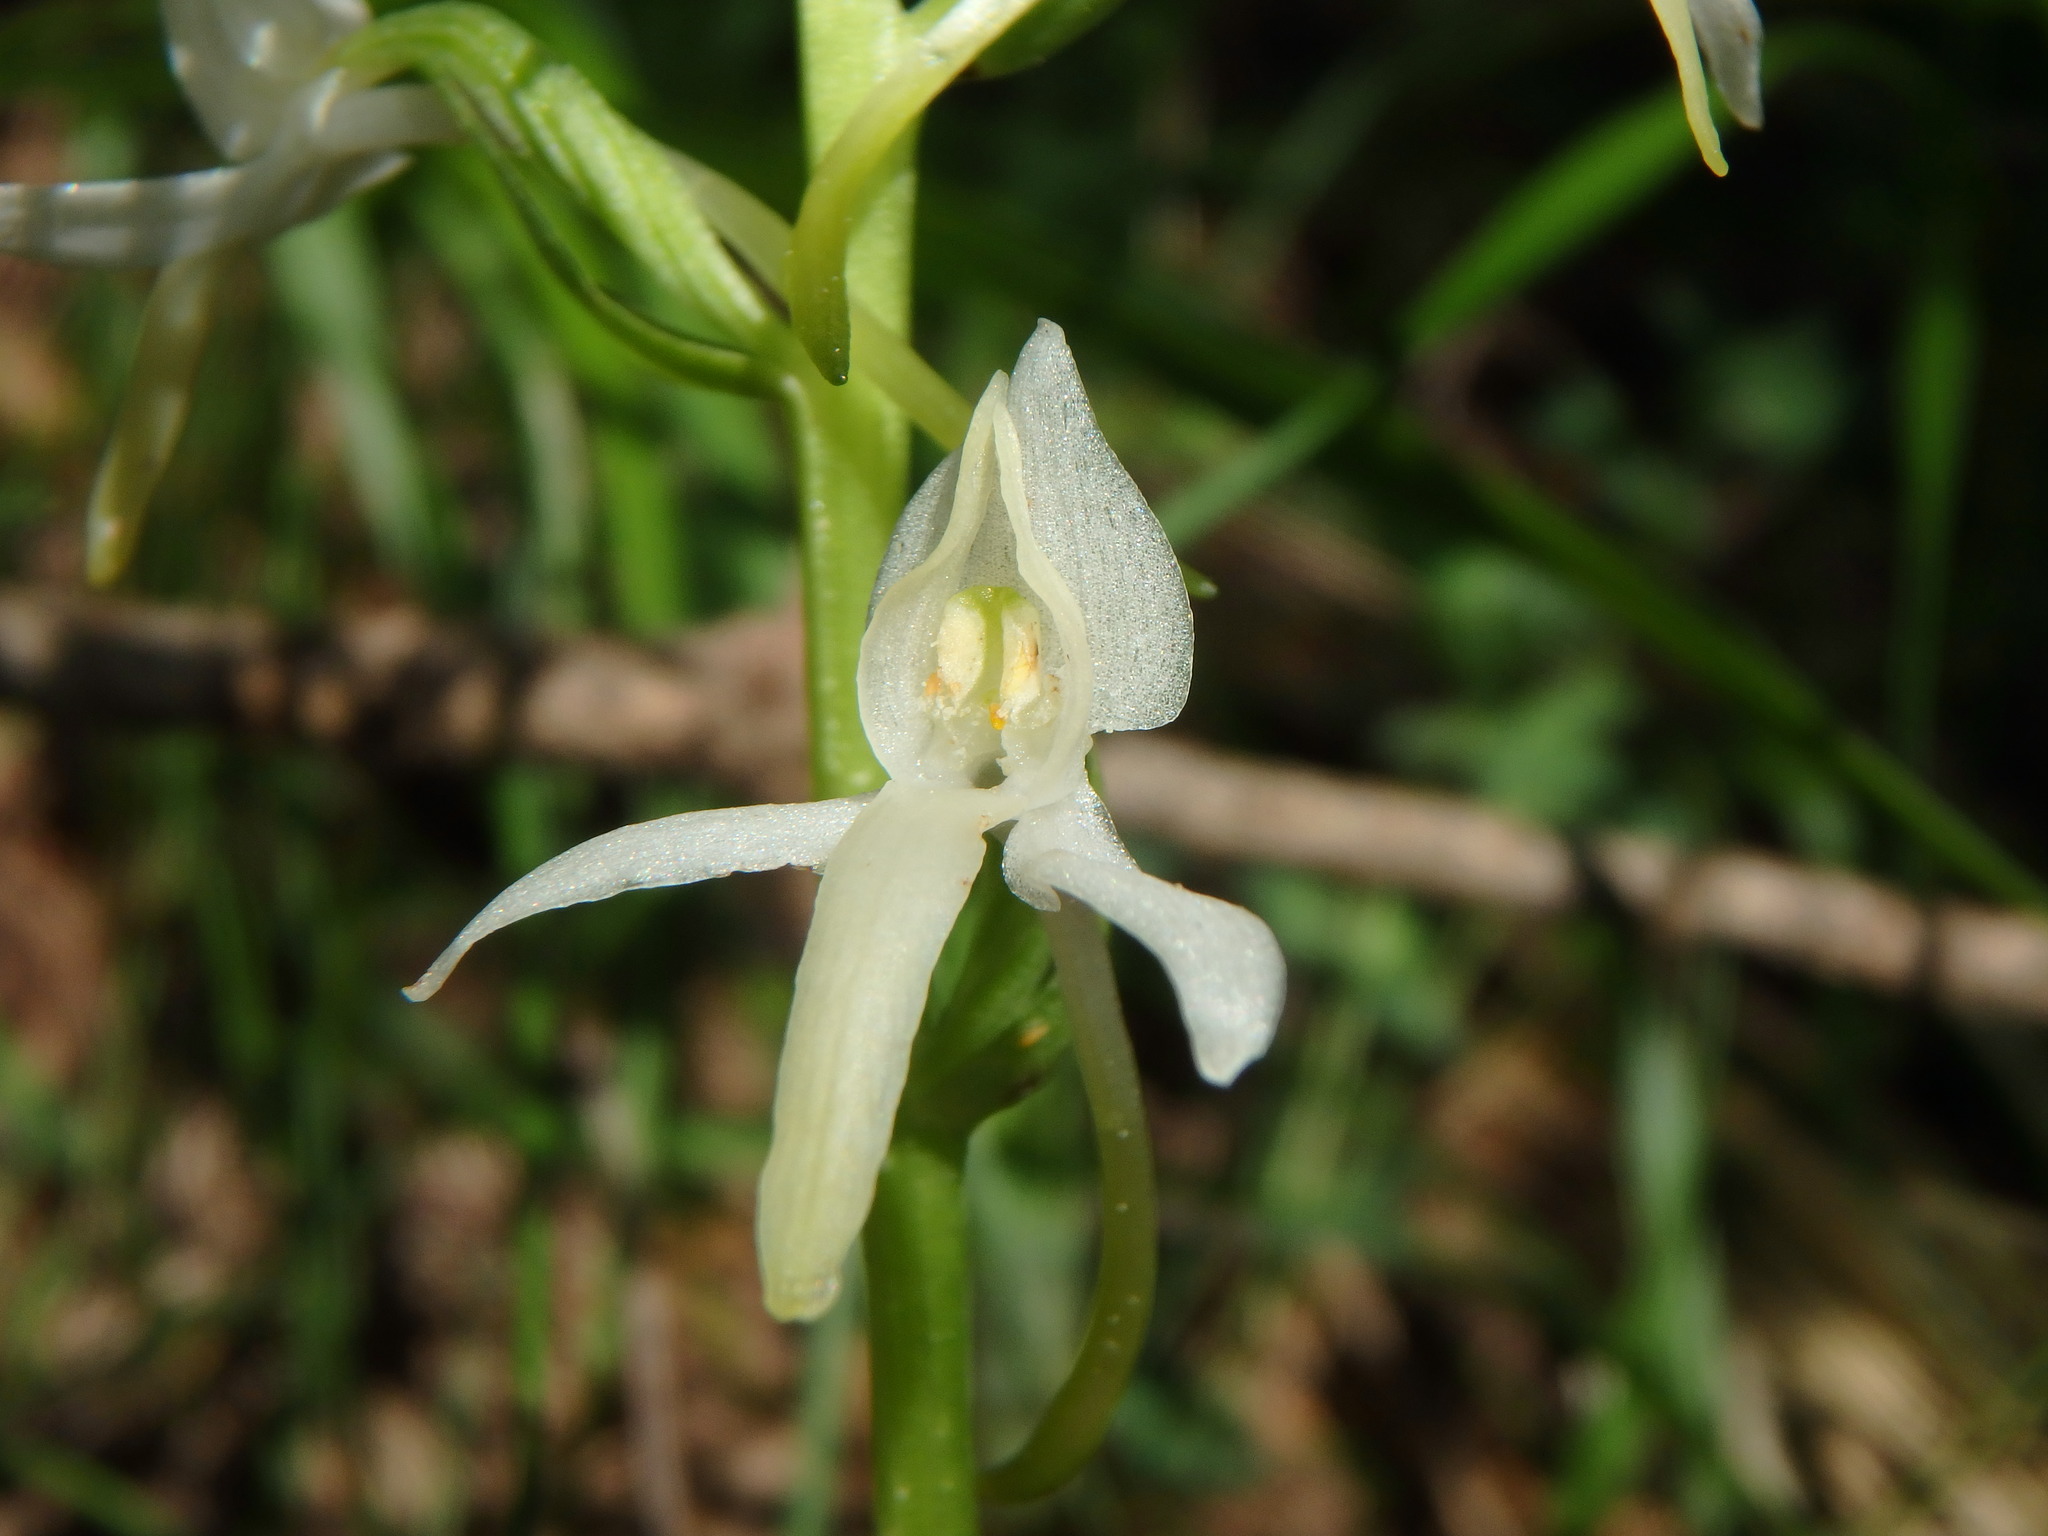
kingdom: Plantae
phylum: Tracheophyta
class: Liliopsida
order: Asparagales
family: Orchidaceae
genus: Platanthera
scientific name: Platanthera bifolia
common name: Lesser butterfly-orchid
